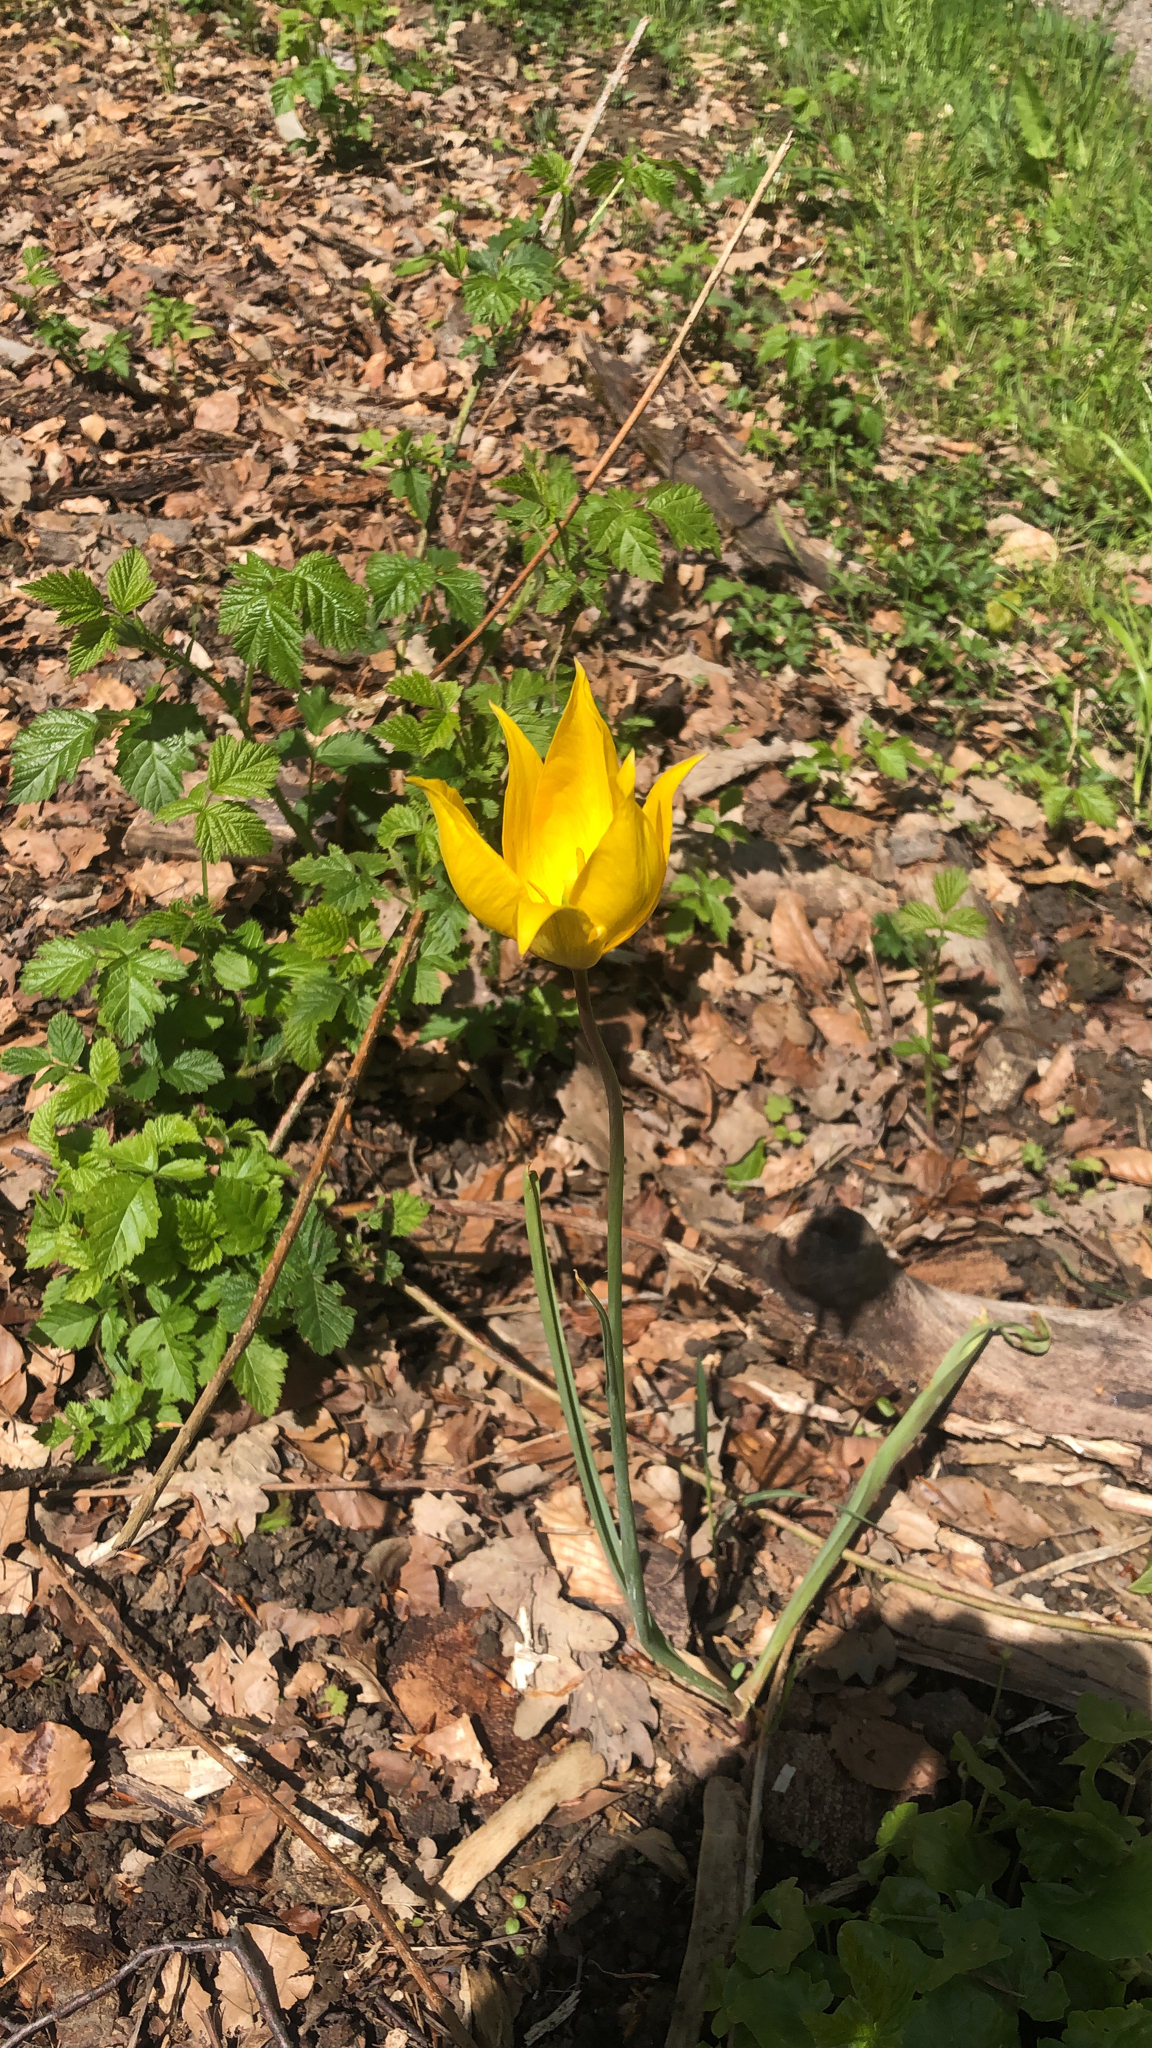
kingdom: Plantae
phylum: Tracheophyta
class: Liliopsida
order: Liliales
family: Liliaceae
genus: Tulipa
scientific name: Tulipa sylvestris
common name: Wild tulip
